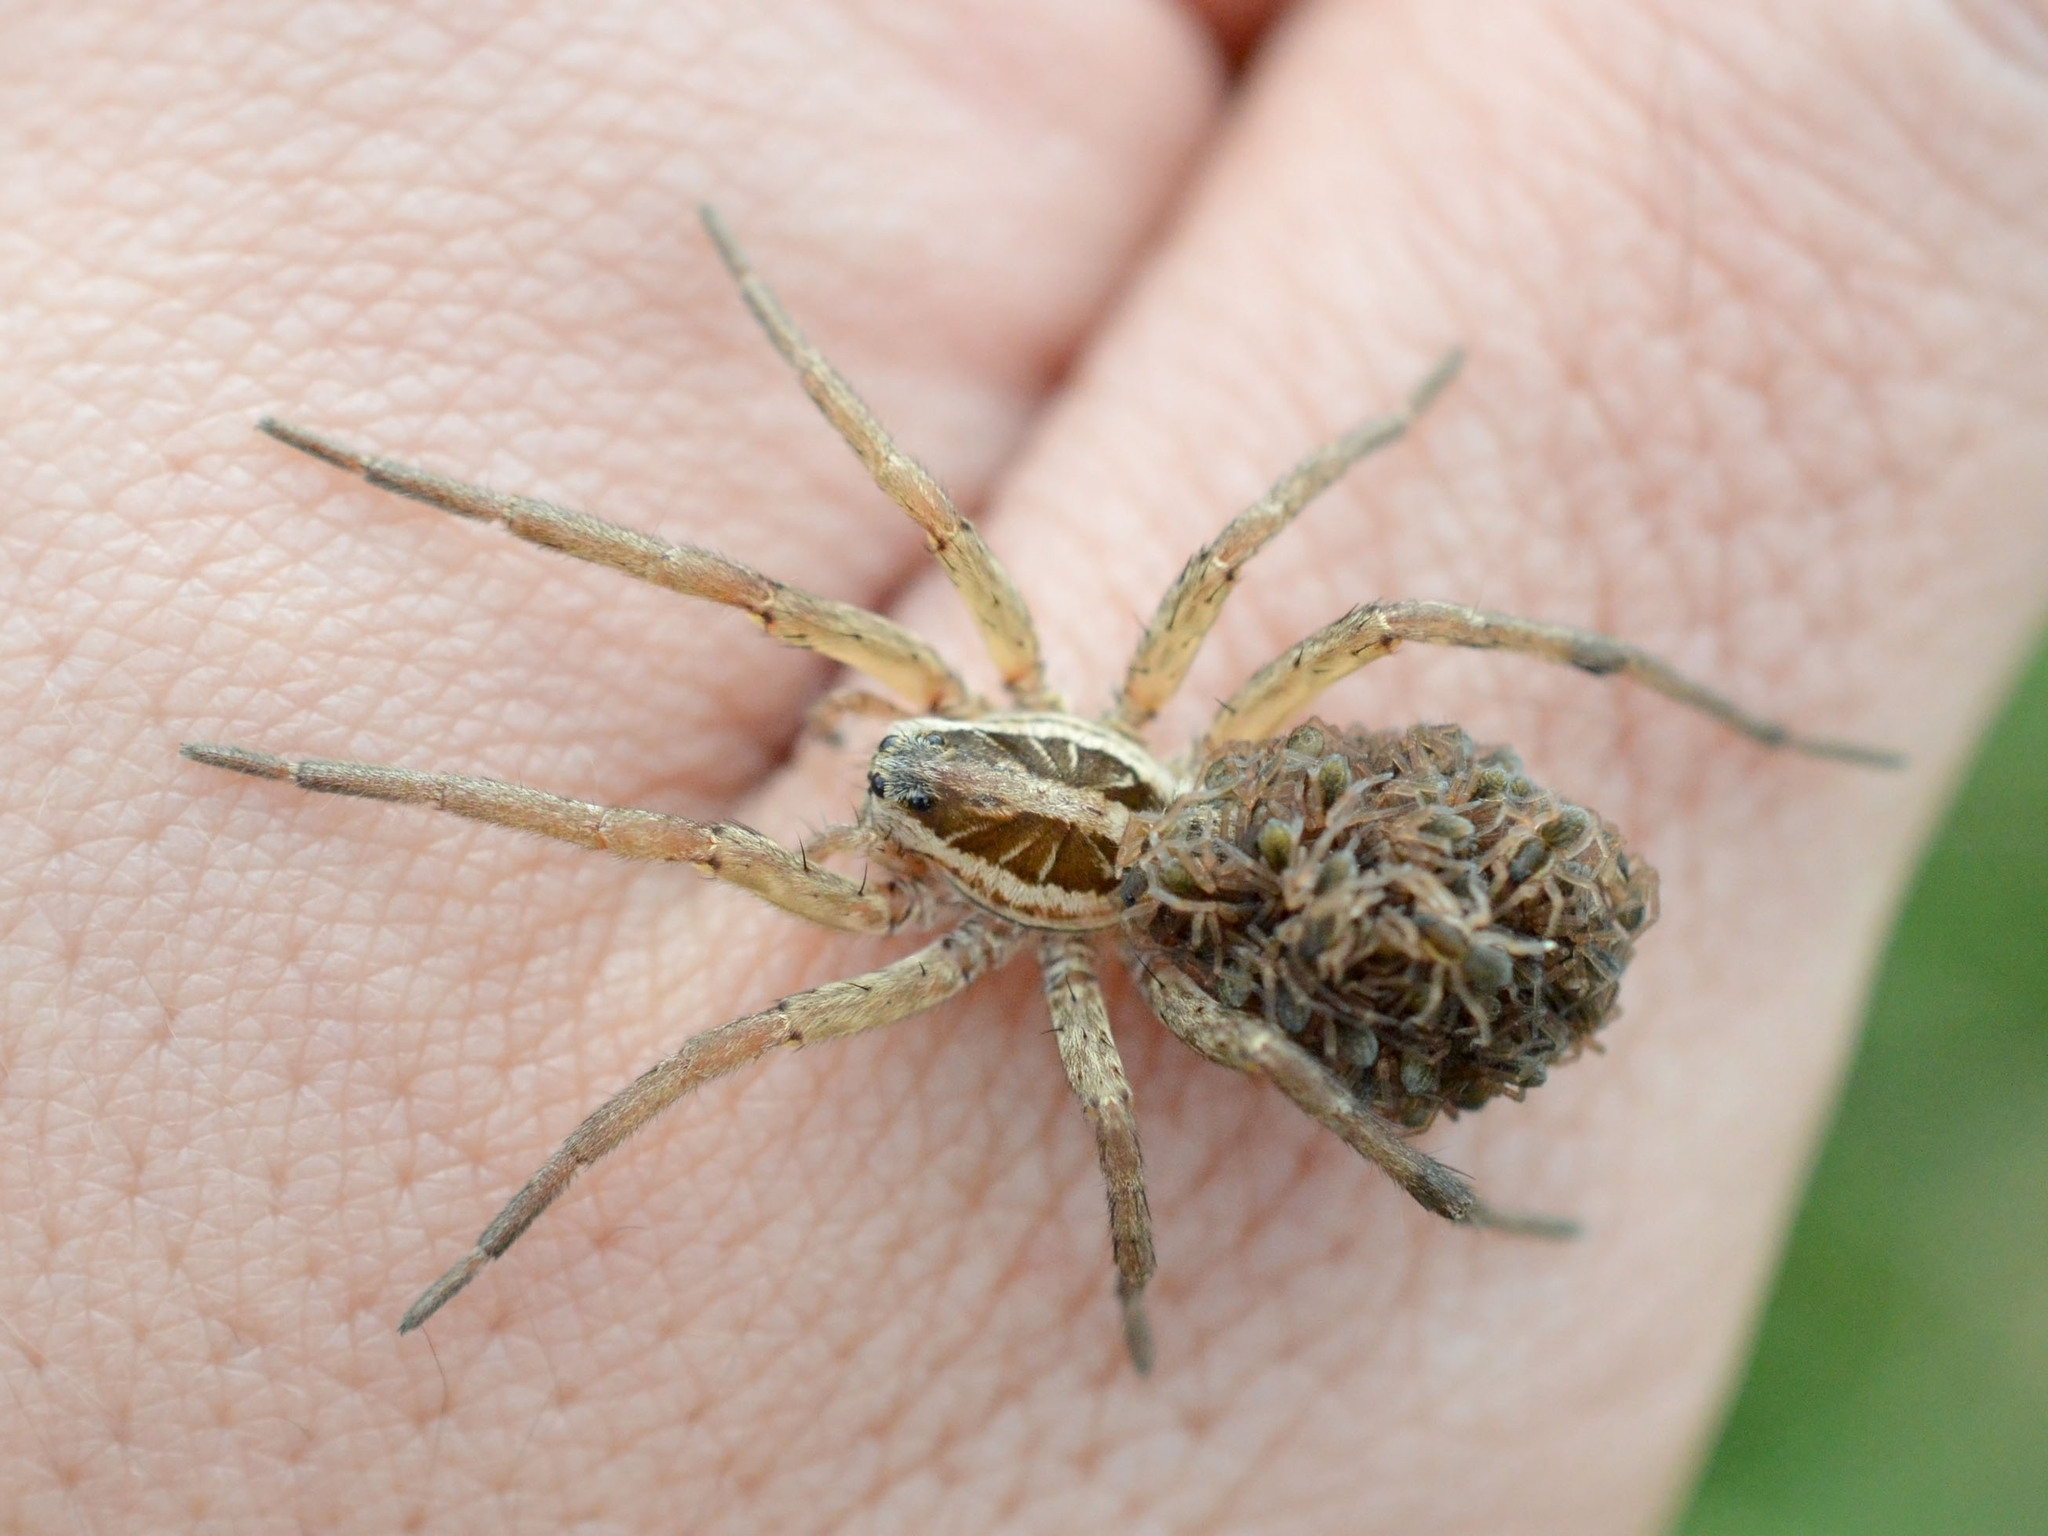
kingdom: Animalia
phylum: Arthropoda
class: Arachnida
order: Araneae
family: Lycosidae
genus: Hogna
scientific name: Hogna radiata
